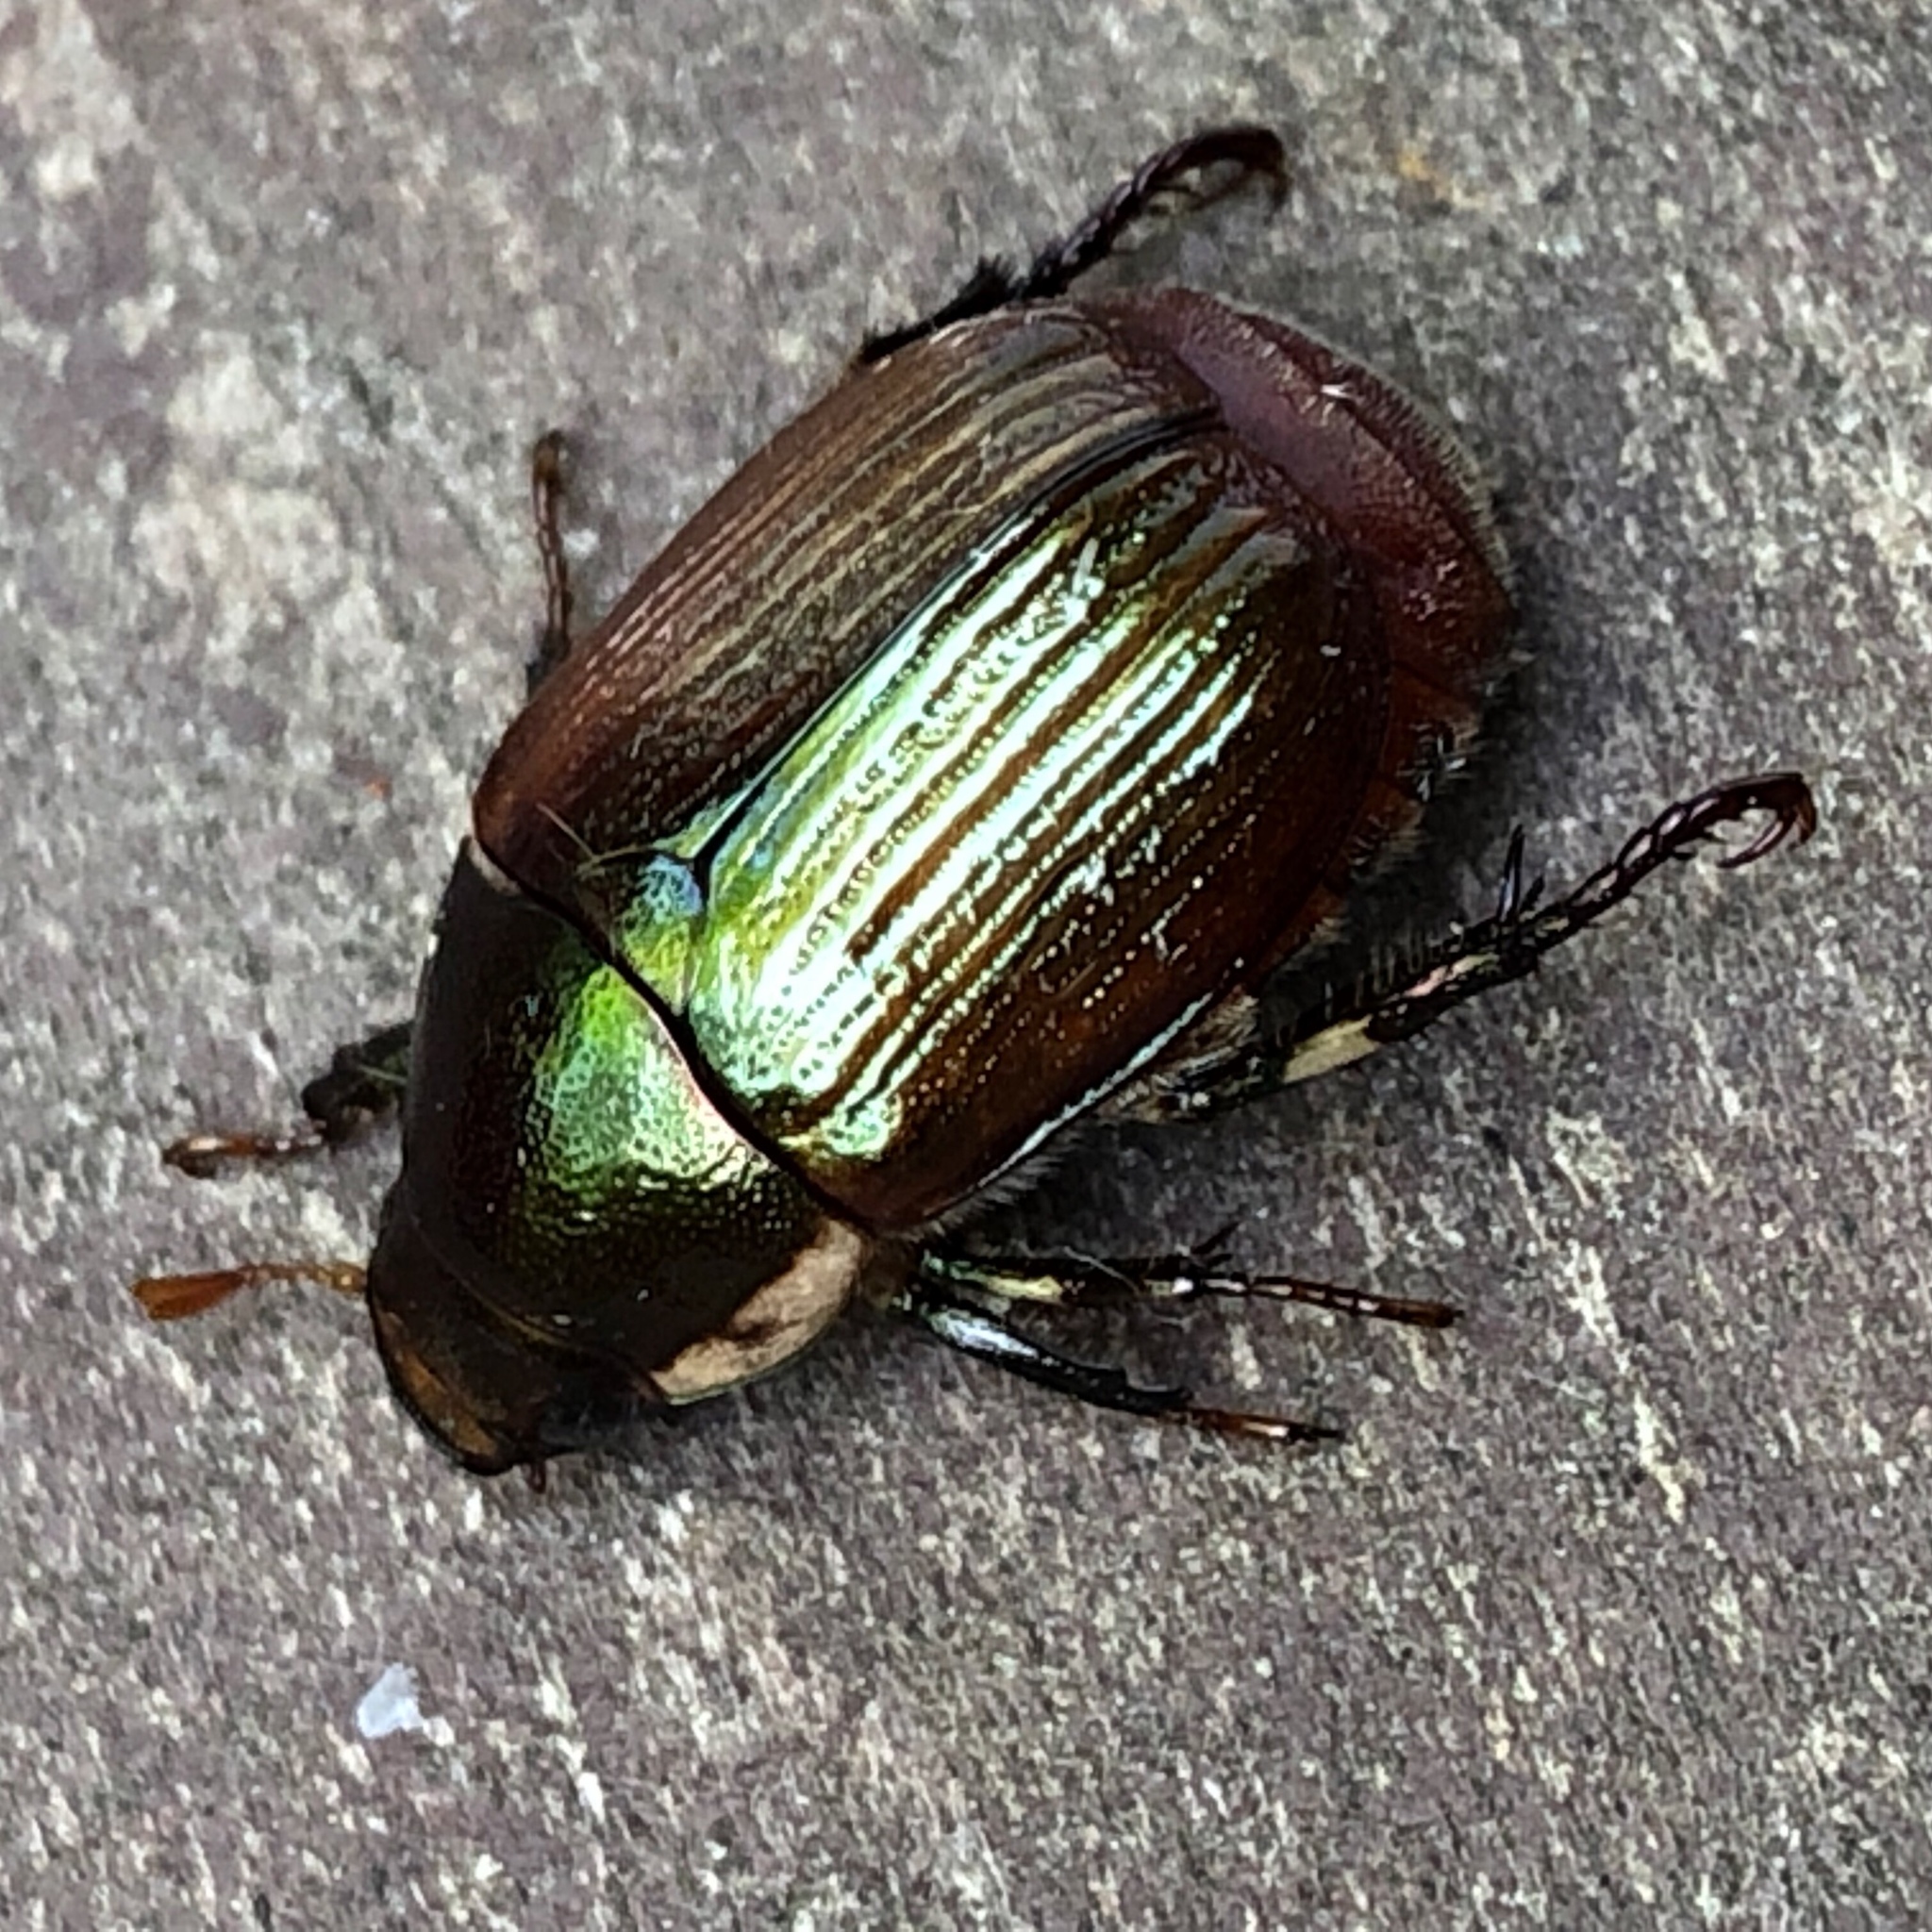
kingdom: Animalia
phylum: Arthropoda
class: Insecta
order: Coleoptera
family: Scarabaeidae
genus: Callistethus
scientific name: Callistethus marginatus
